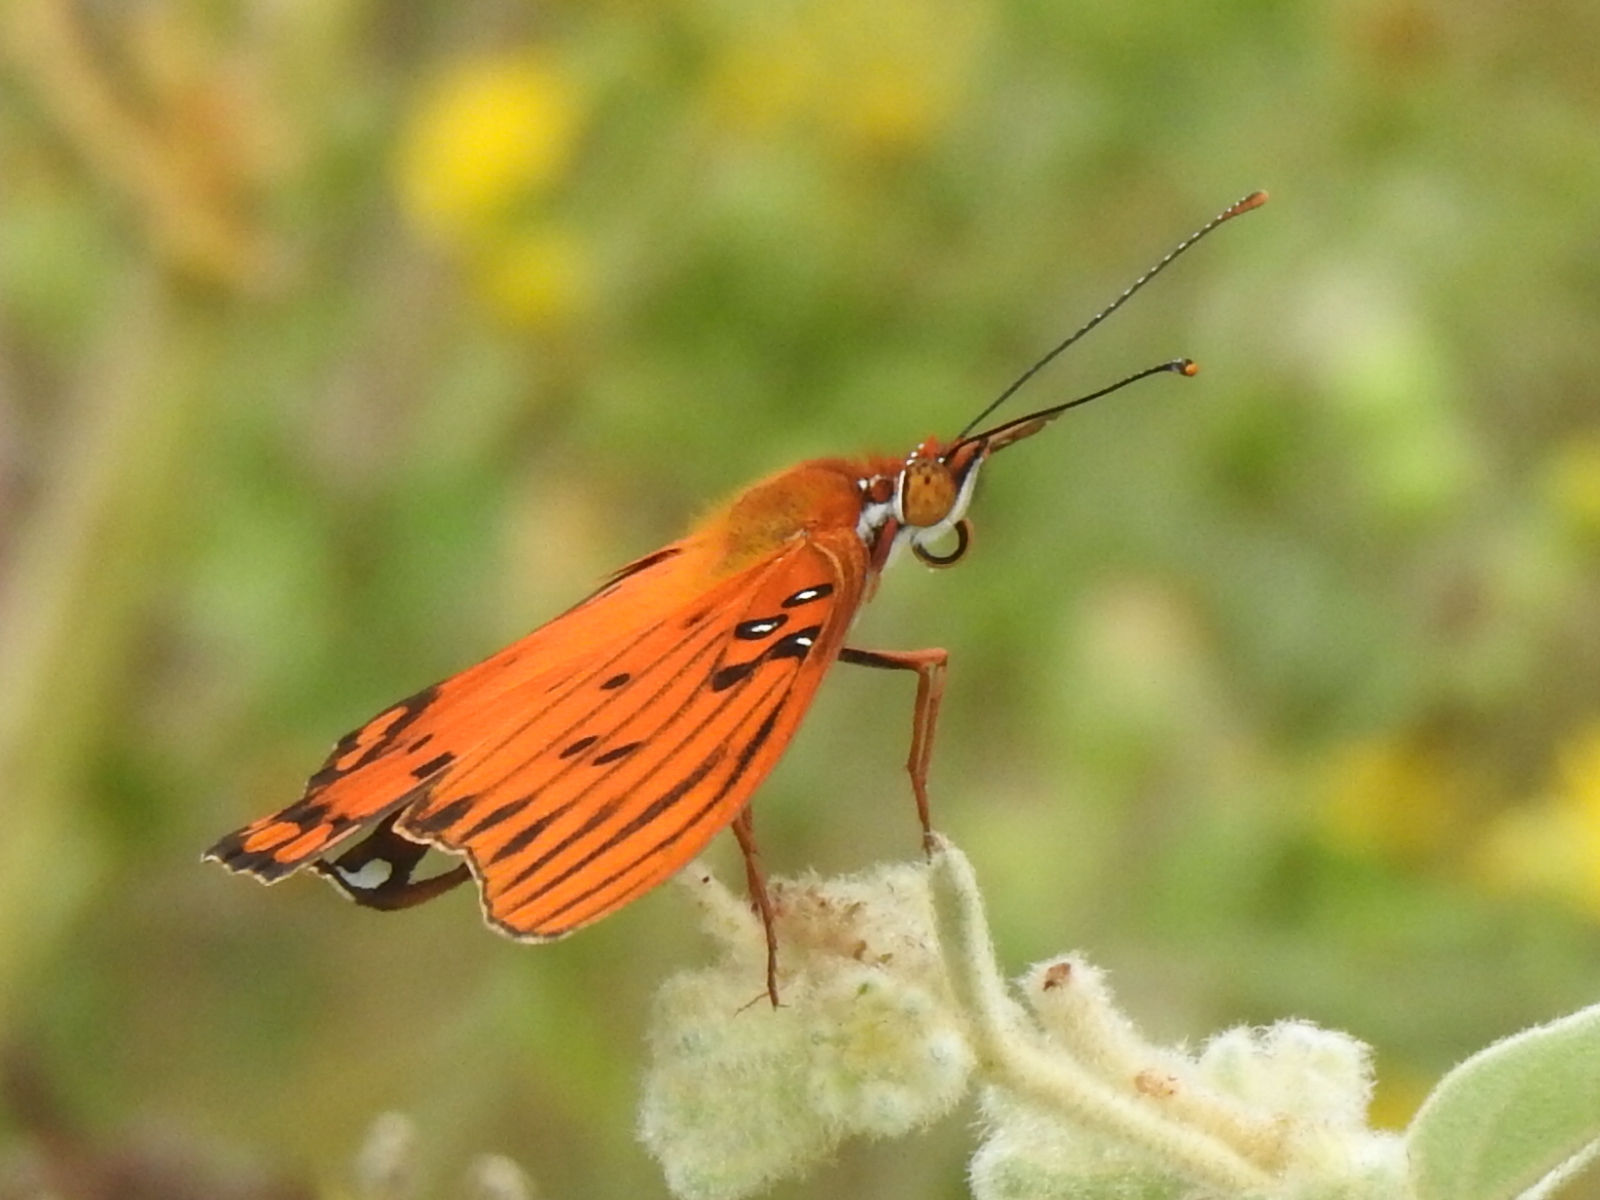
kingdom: Animalia
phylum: Arthropoda
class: Insecta
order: Lepidoptera
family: Nymphalidae
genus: Dione
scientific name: Dione vanillae
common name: Gulf fritillary
